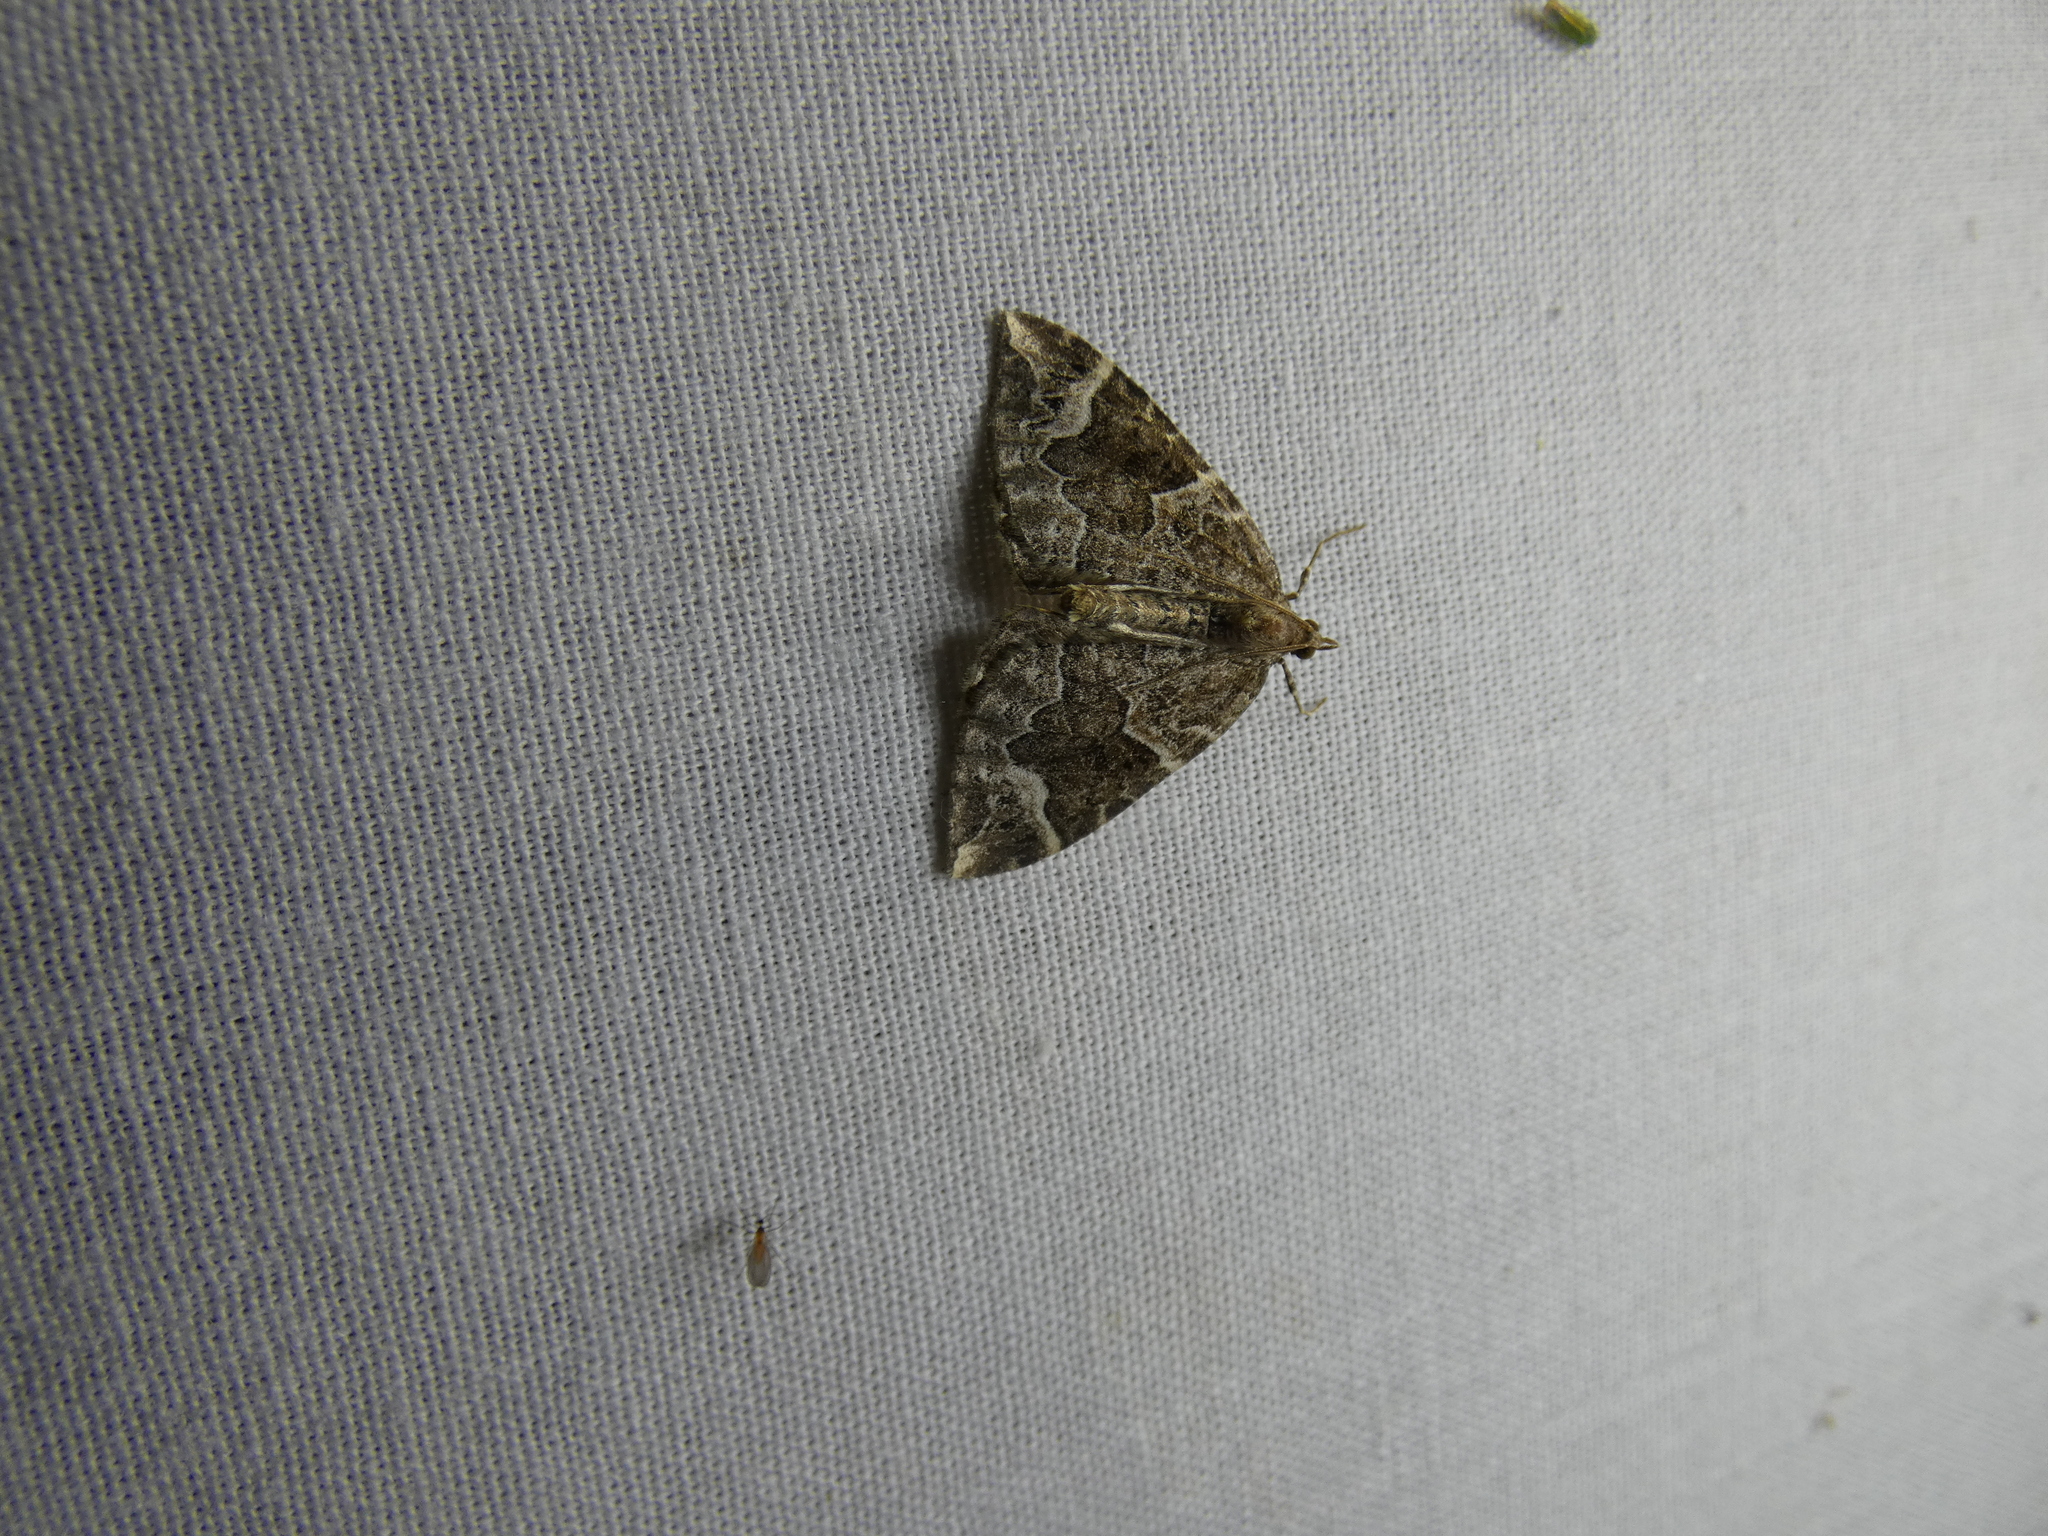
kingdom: Animalia
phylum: Arthropoda
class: Insecta
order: Lepidoptera
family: Geometridae
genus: Eulithis
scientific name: Eulithis prunata
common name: Phoenix
